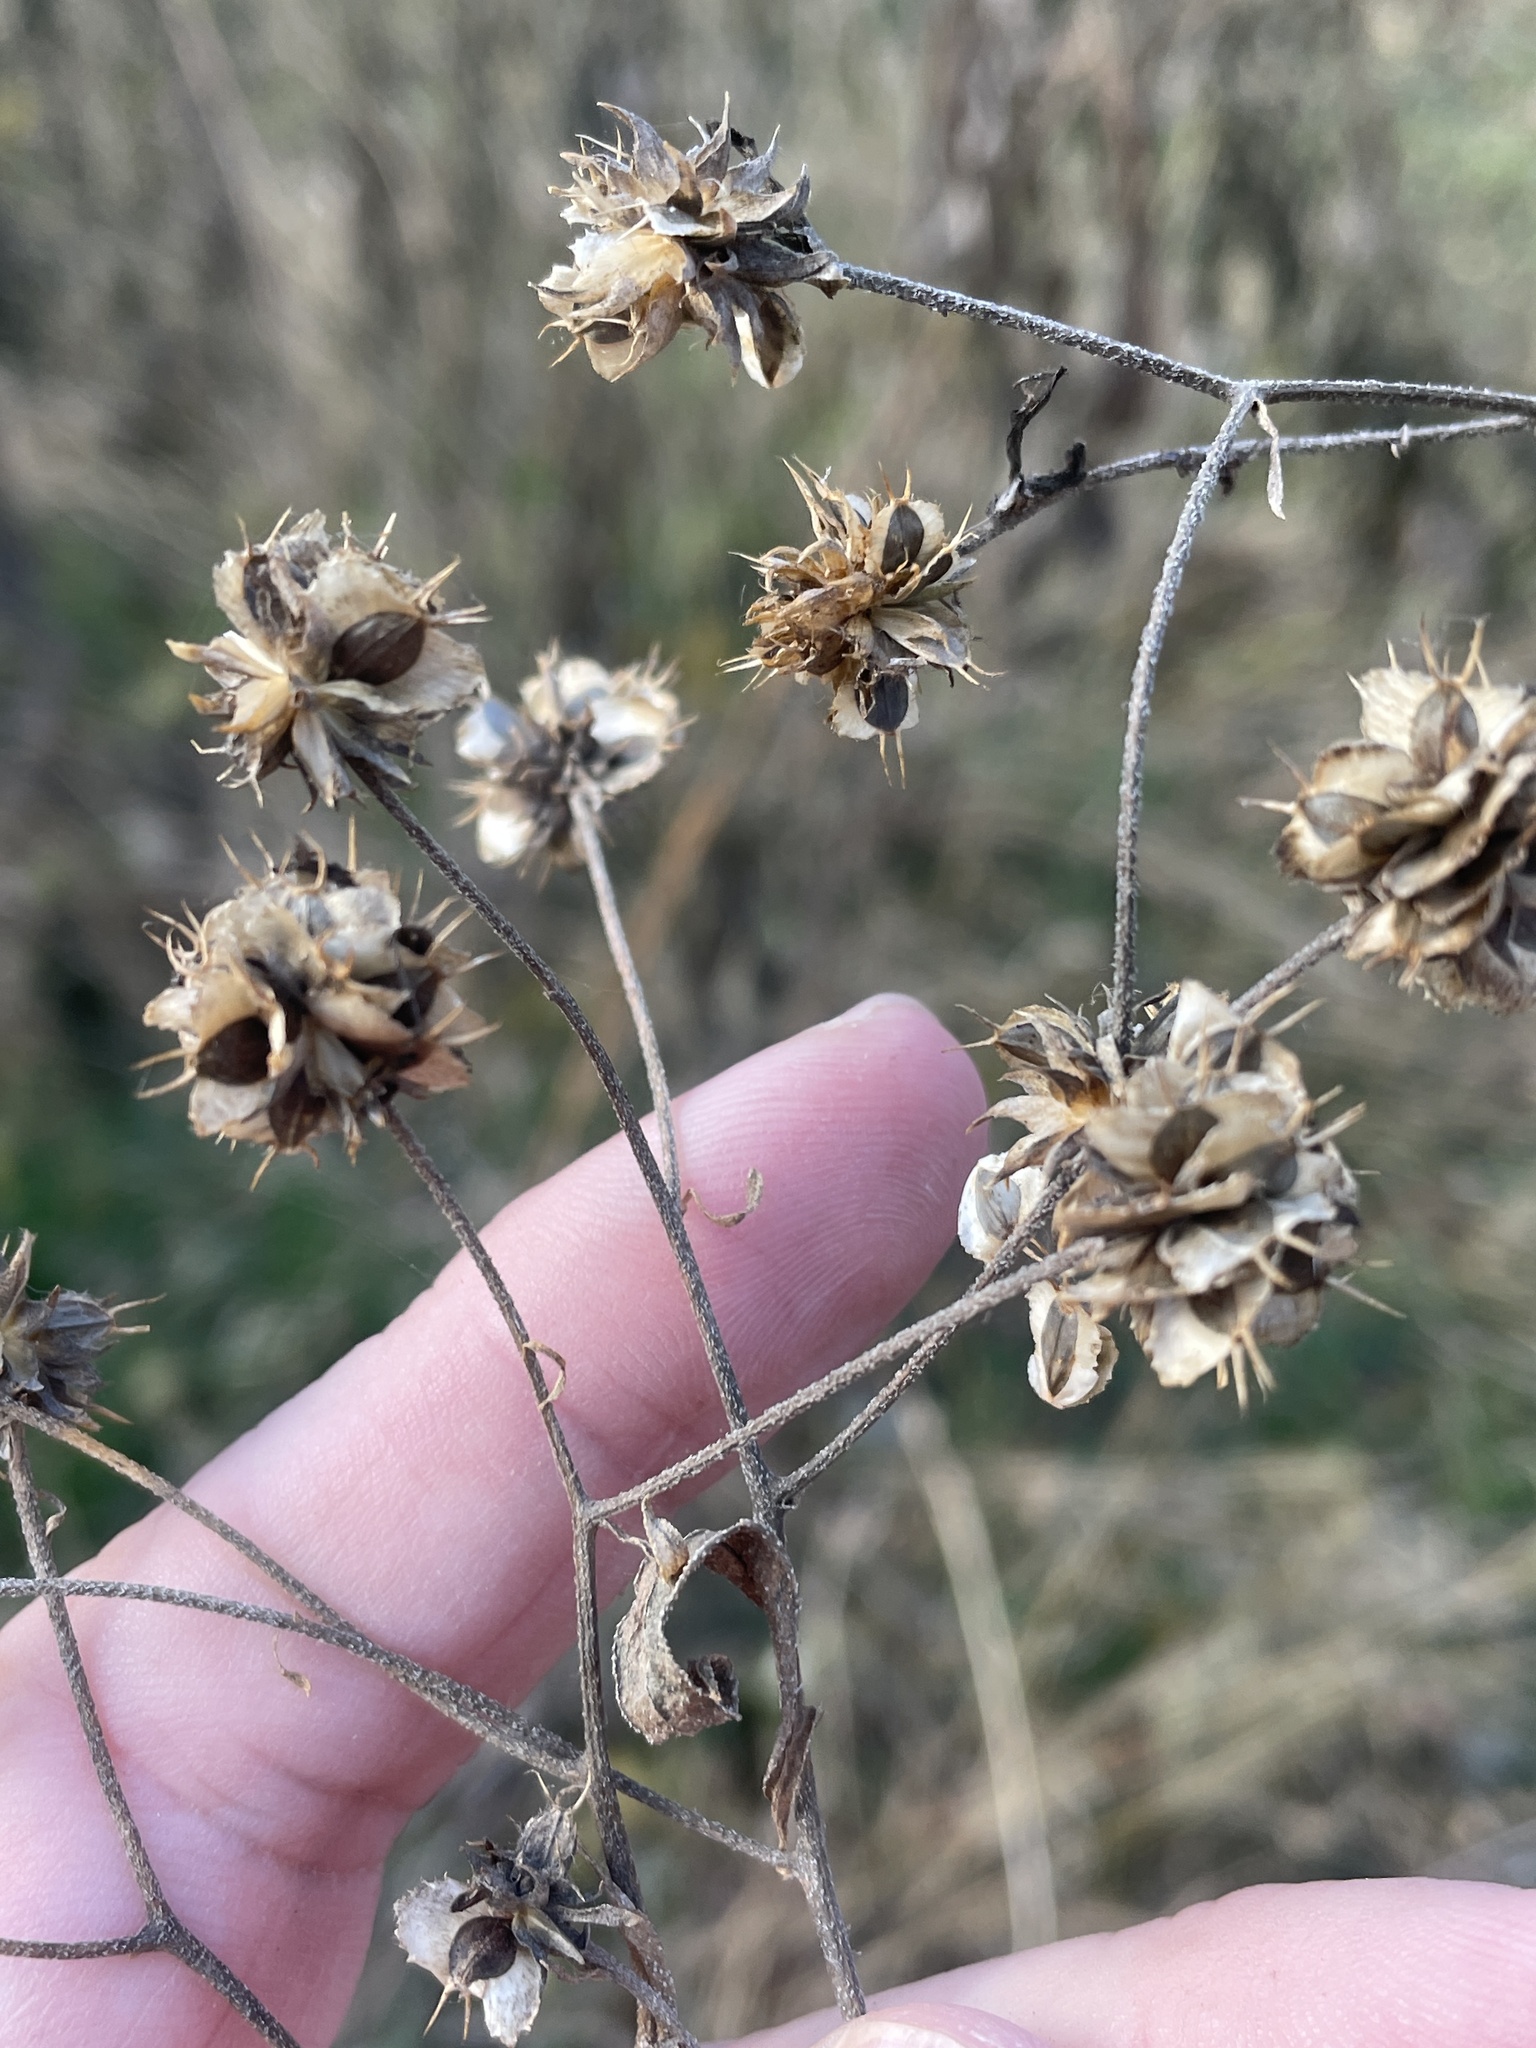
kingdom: Plantae
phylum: Tracheophyta
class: Magnoliopsida
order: Asterales
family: Asteraceae
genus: Verbesina
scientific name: Verbesina alternifolia
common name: Wingstem
